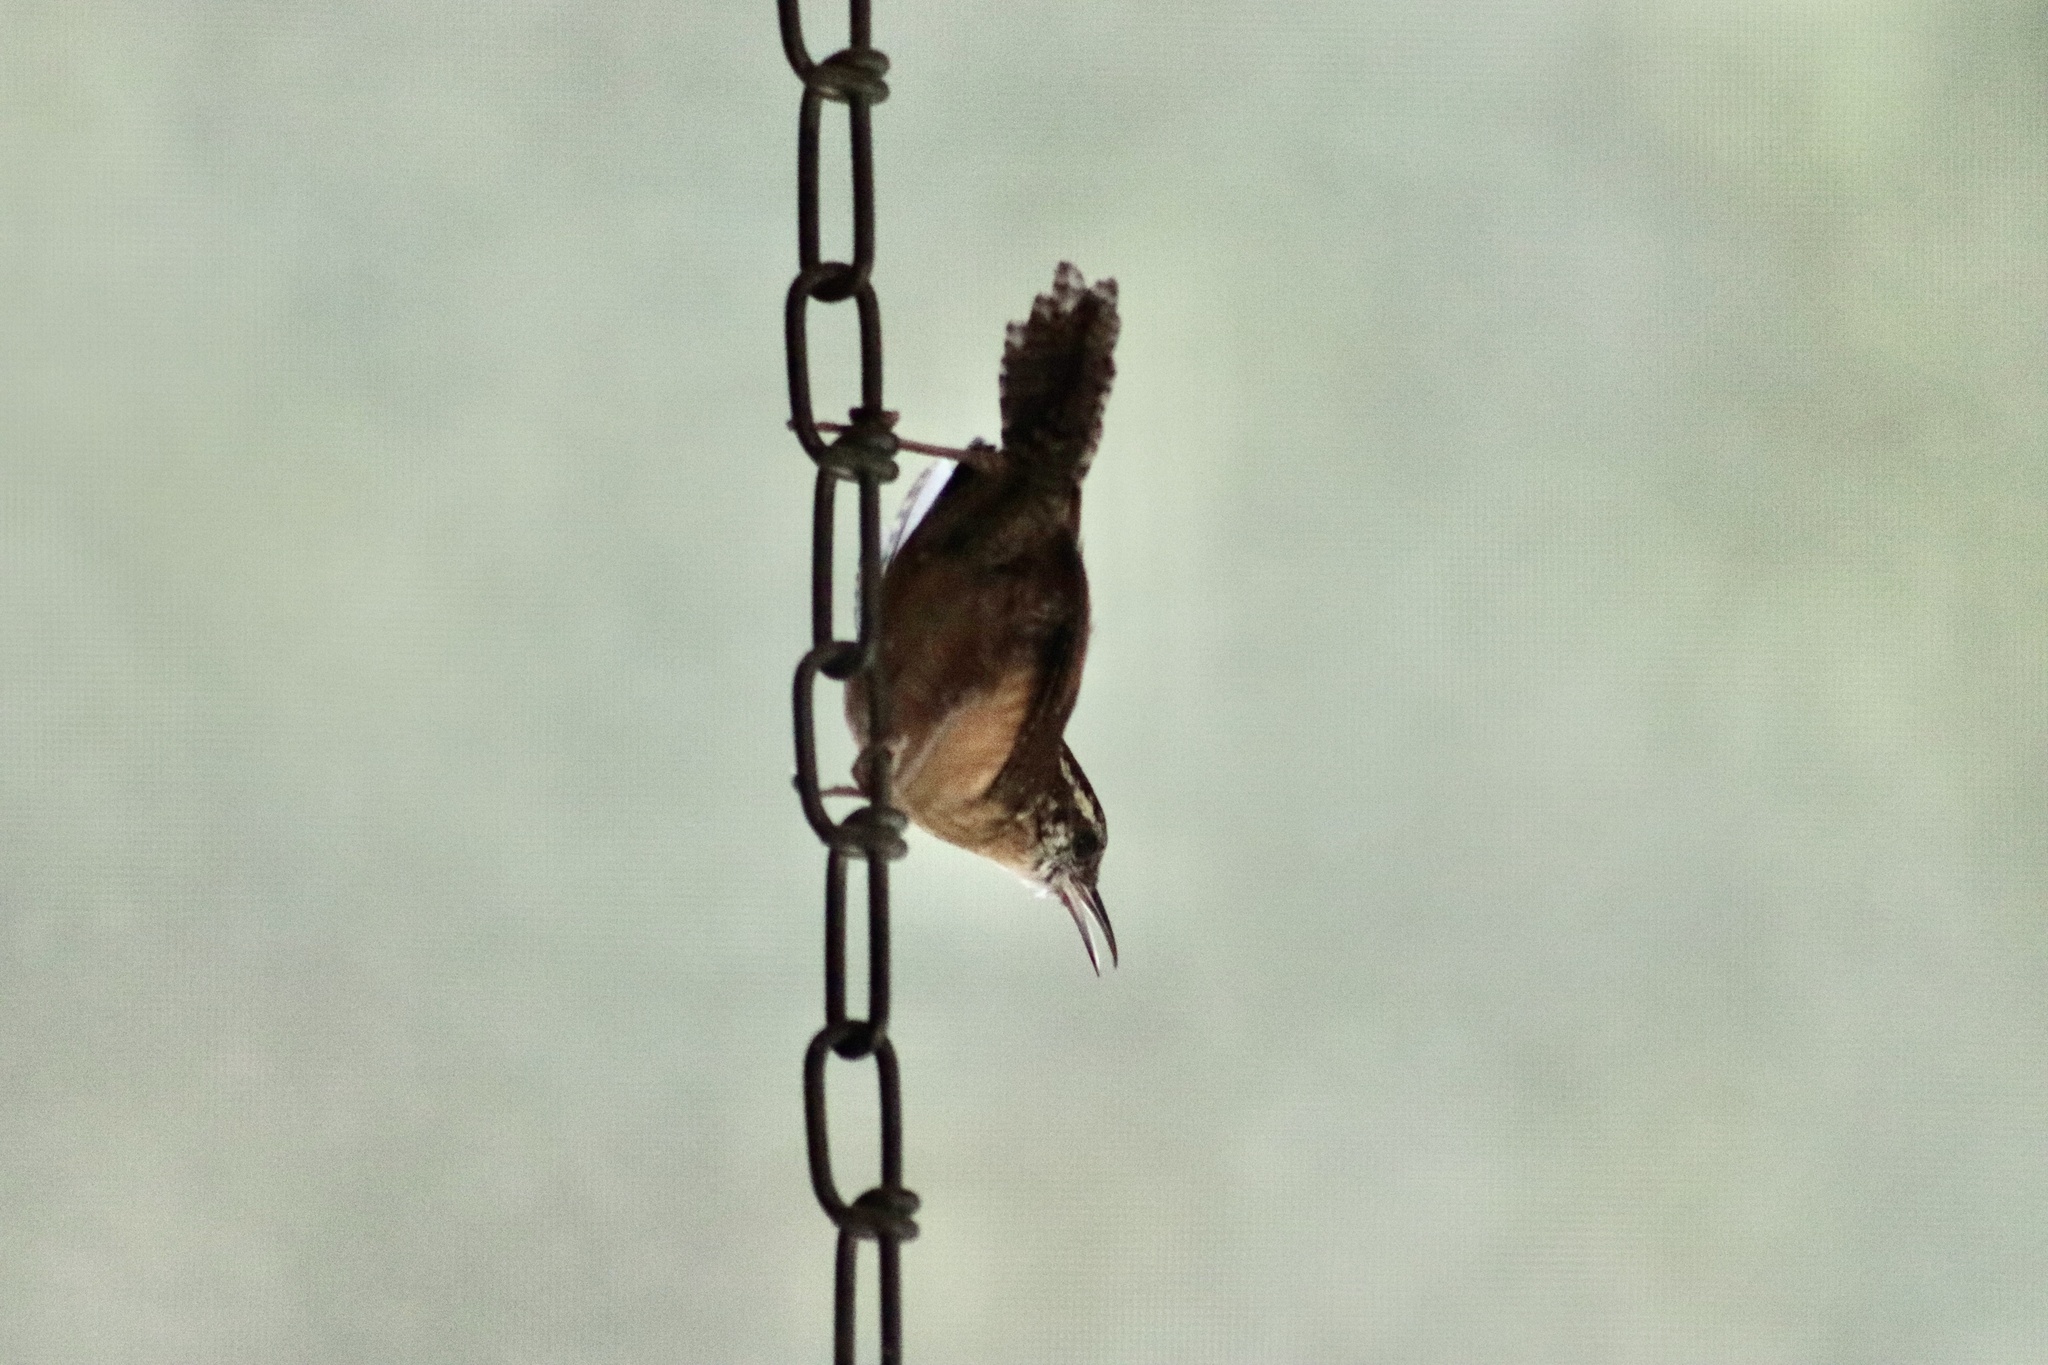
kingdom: Animalia
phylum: Chordata
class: Aves
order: Passeriformes
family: Troglodytidae
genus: Thryothorus
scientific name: Thryothorus ludovicianus
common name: Carolina wren
